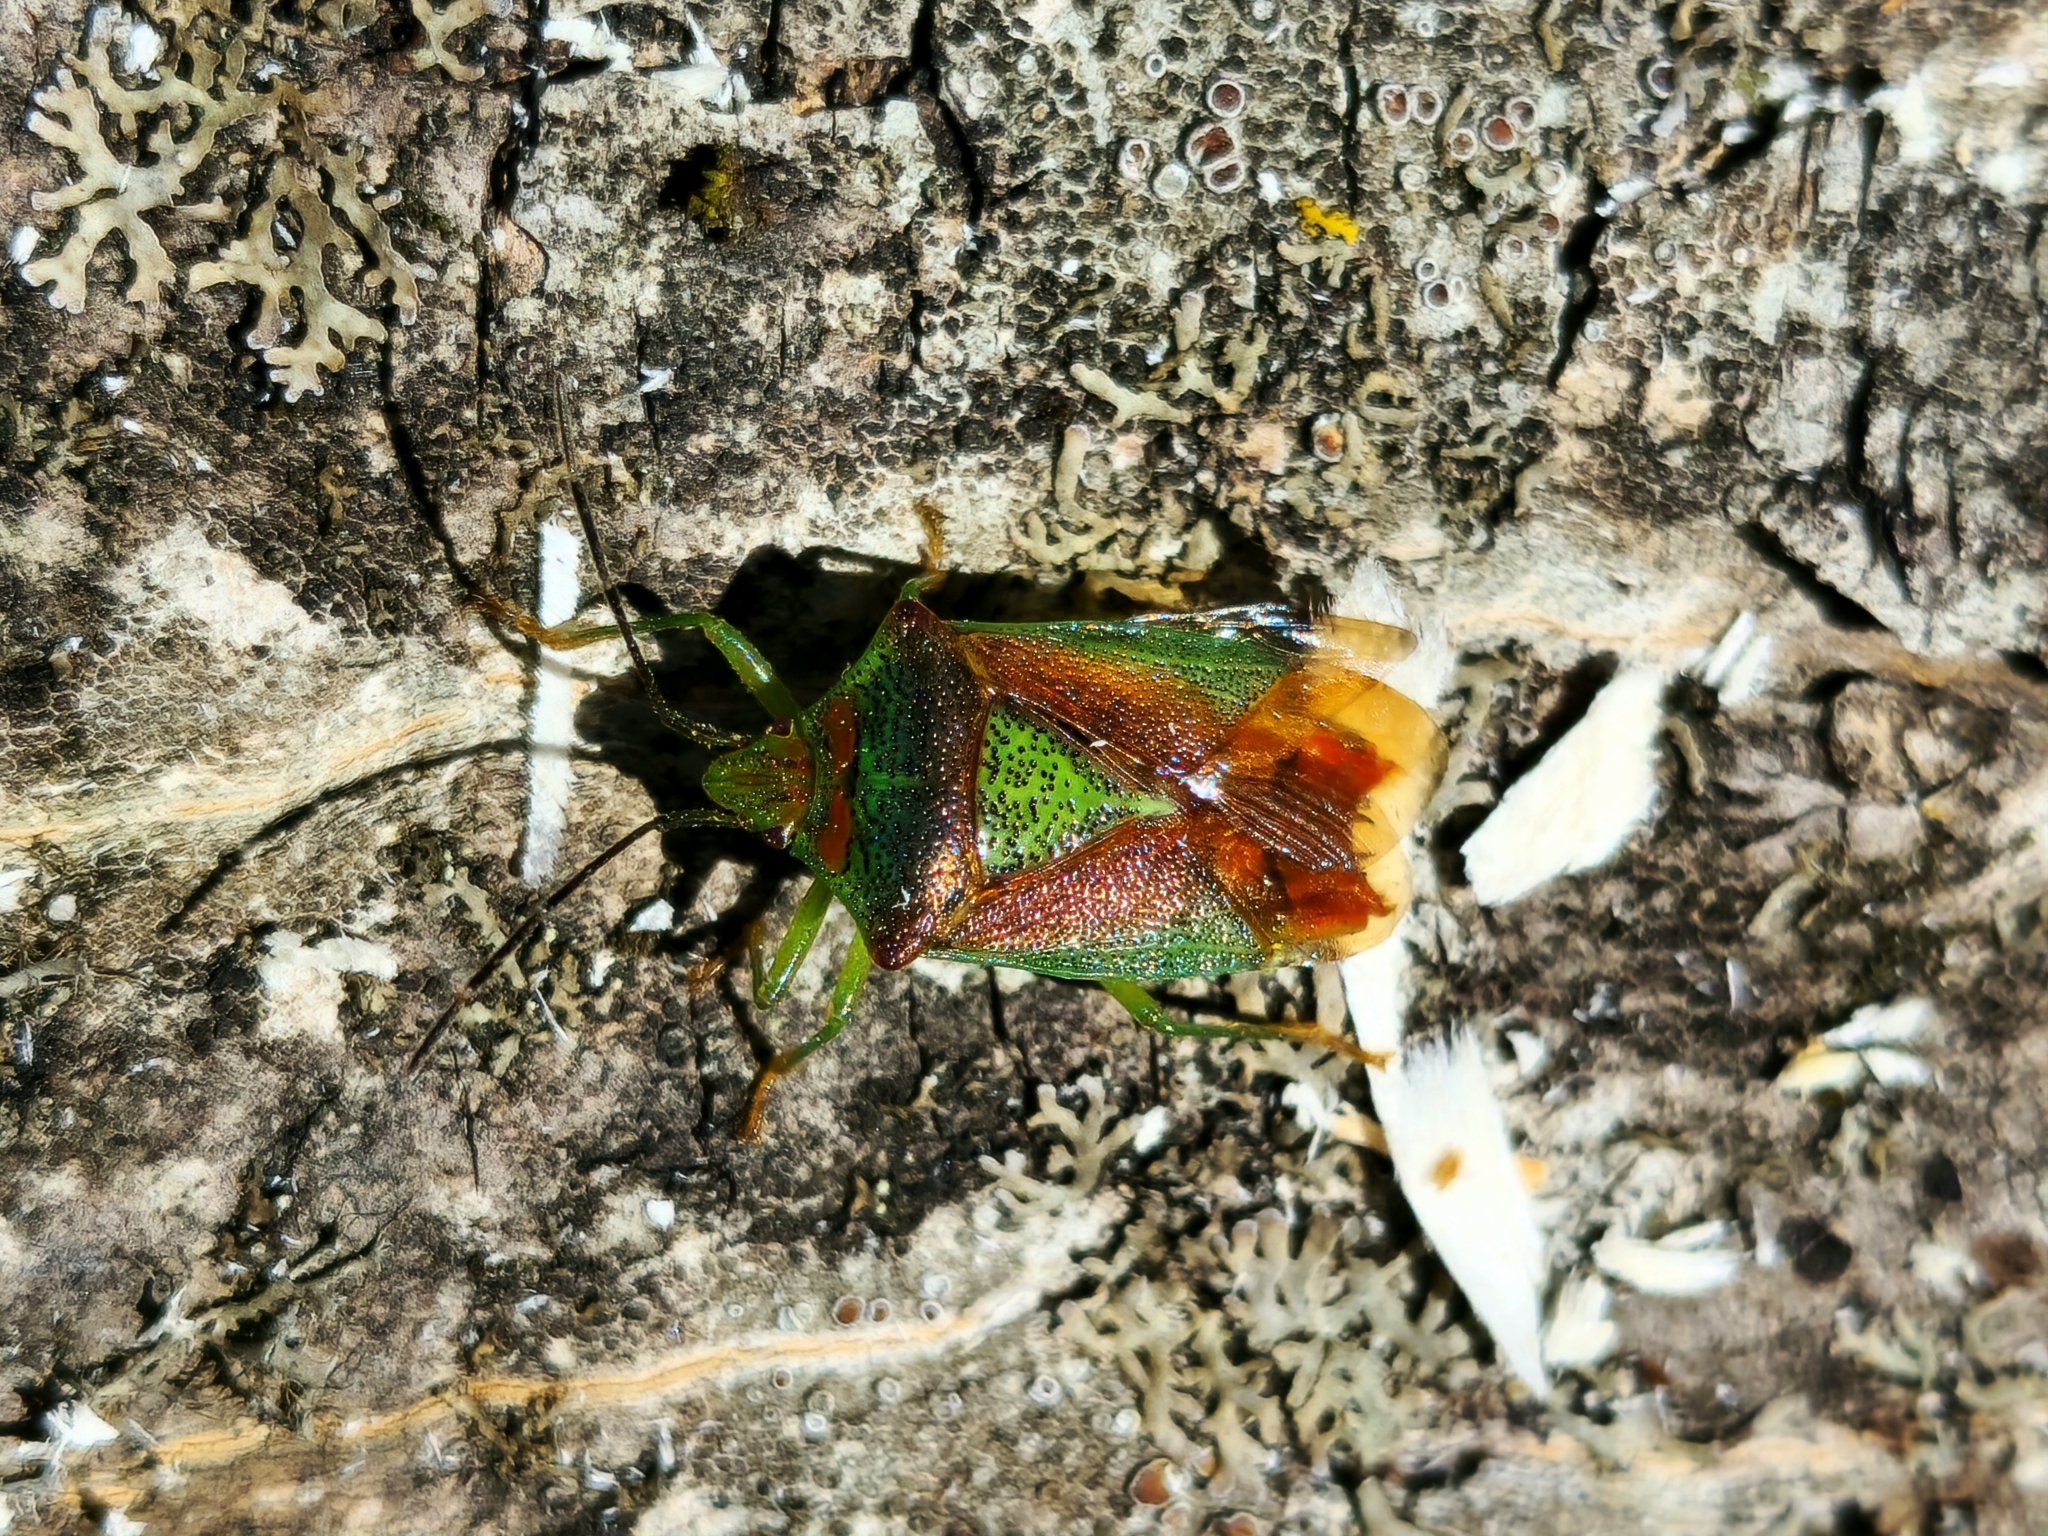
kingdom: Animalia
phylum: Arthropoda
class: Insecta
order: Hemiptera
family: Acanthosomatidae
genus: Acanthosoma
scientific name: Acanthosoma haemorrhoidale
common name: Hawthorn shieldbug
